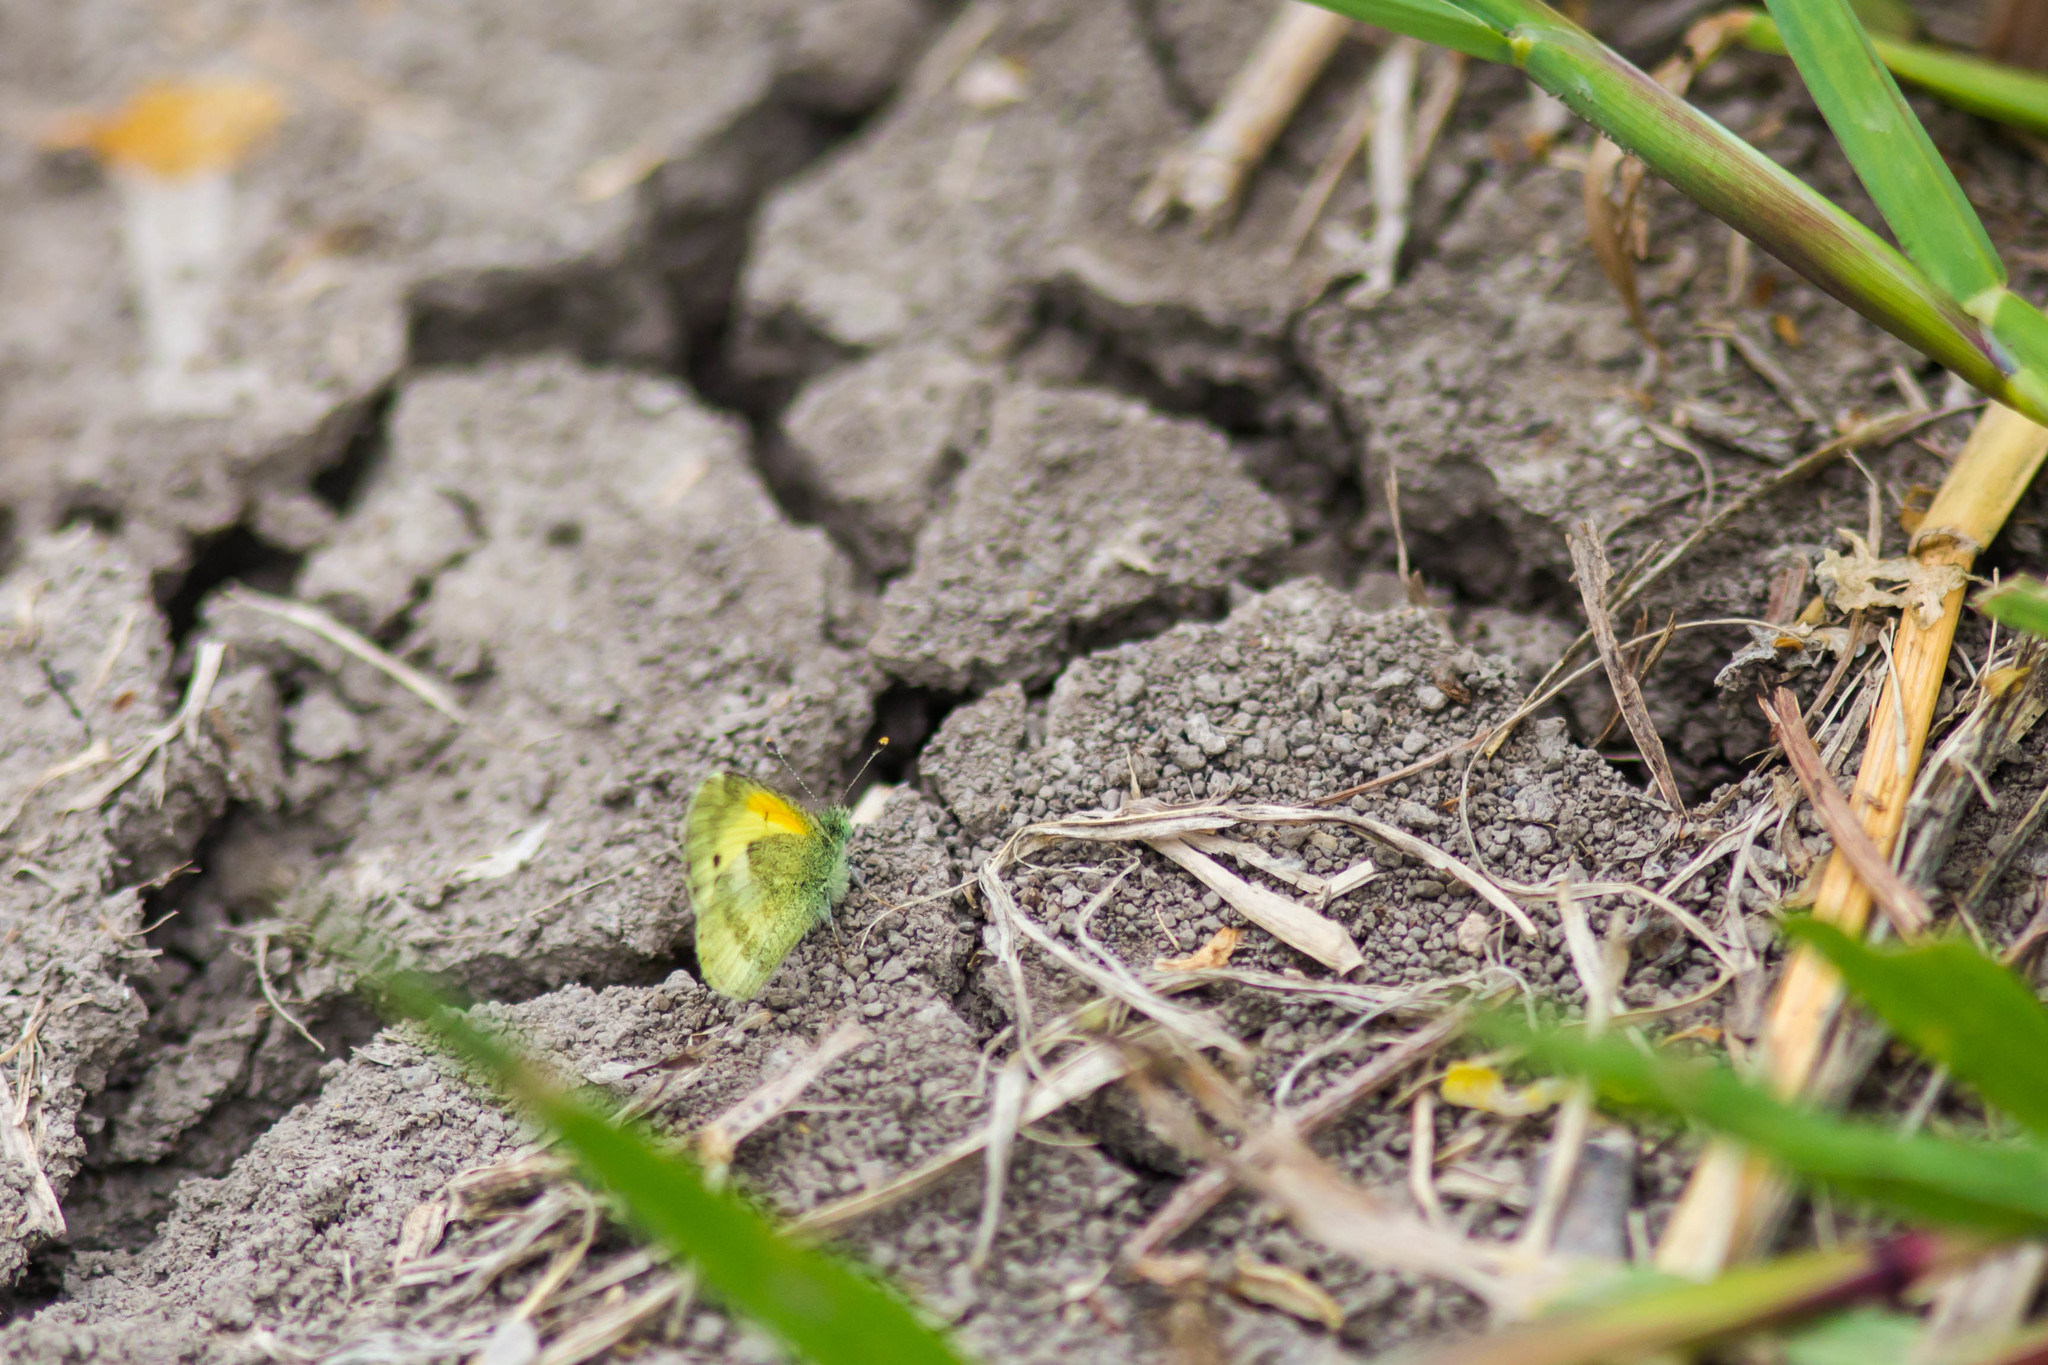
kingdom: Animalia
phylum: Arthropoda
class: Insecta
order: Lepidoptera
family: Pieridae
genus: Nathalis
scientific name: Nathalis iole
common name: Dainty sulphur
